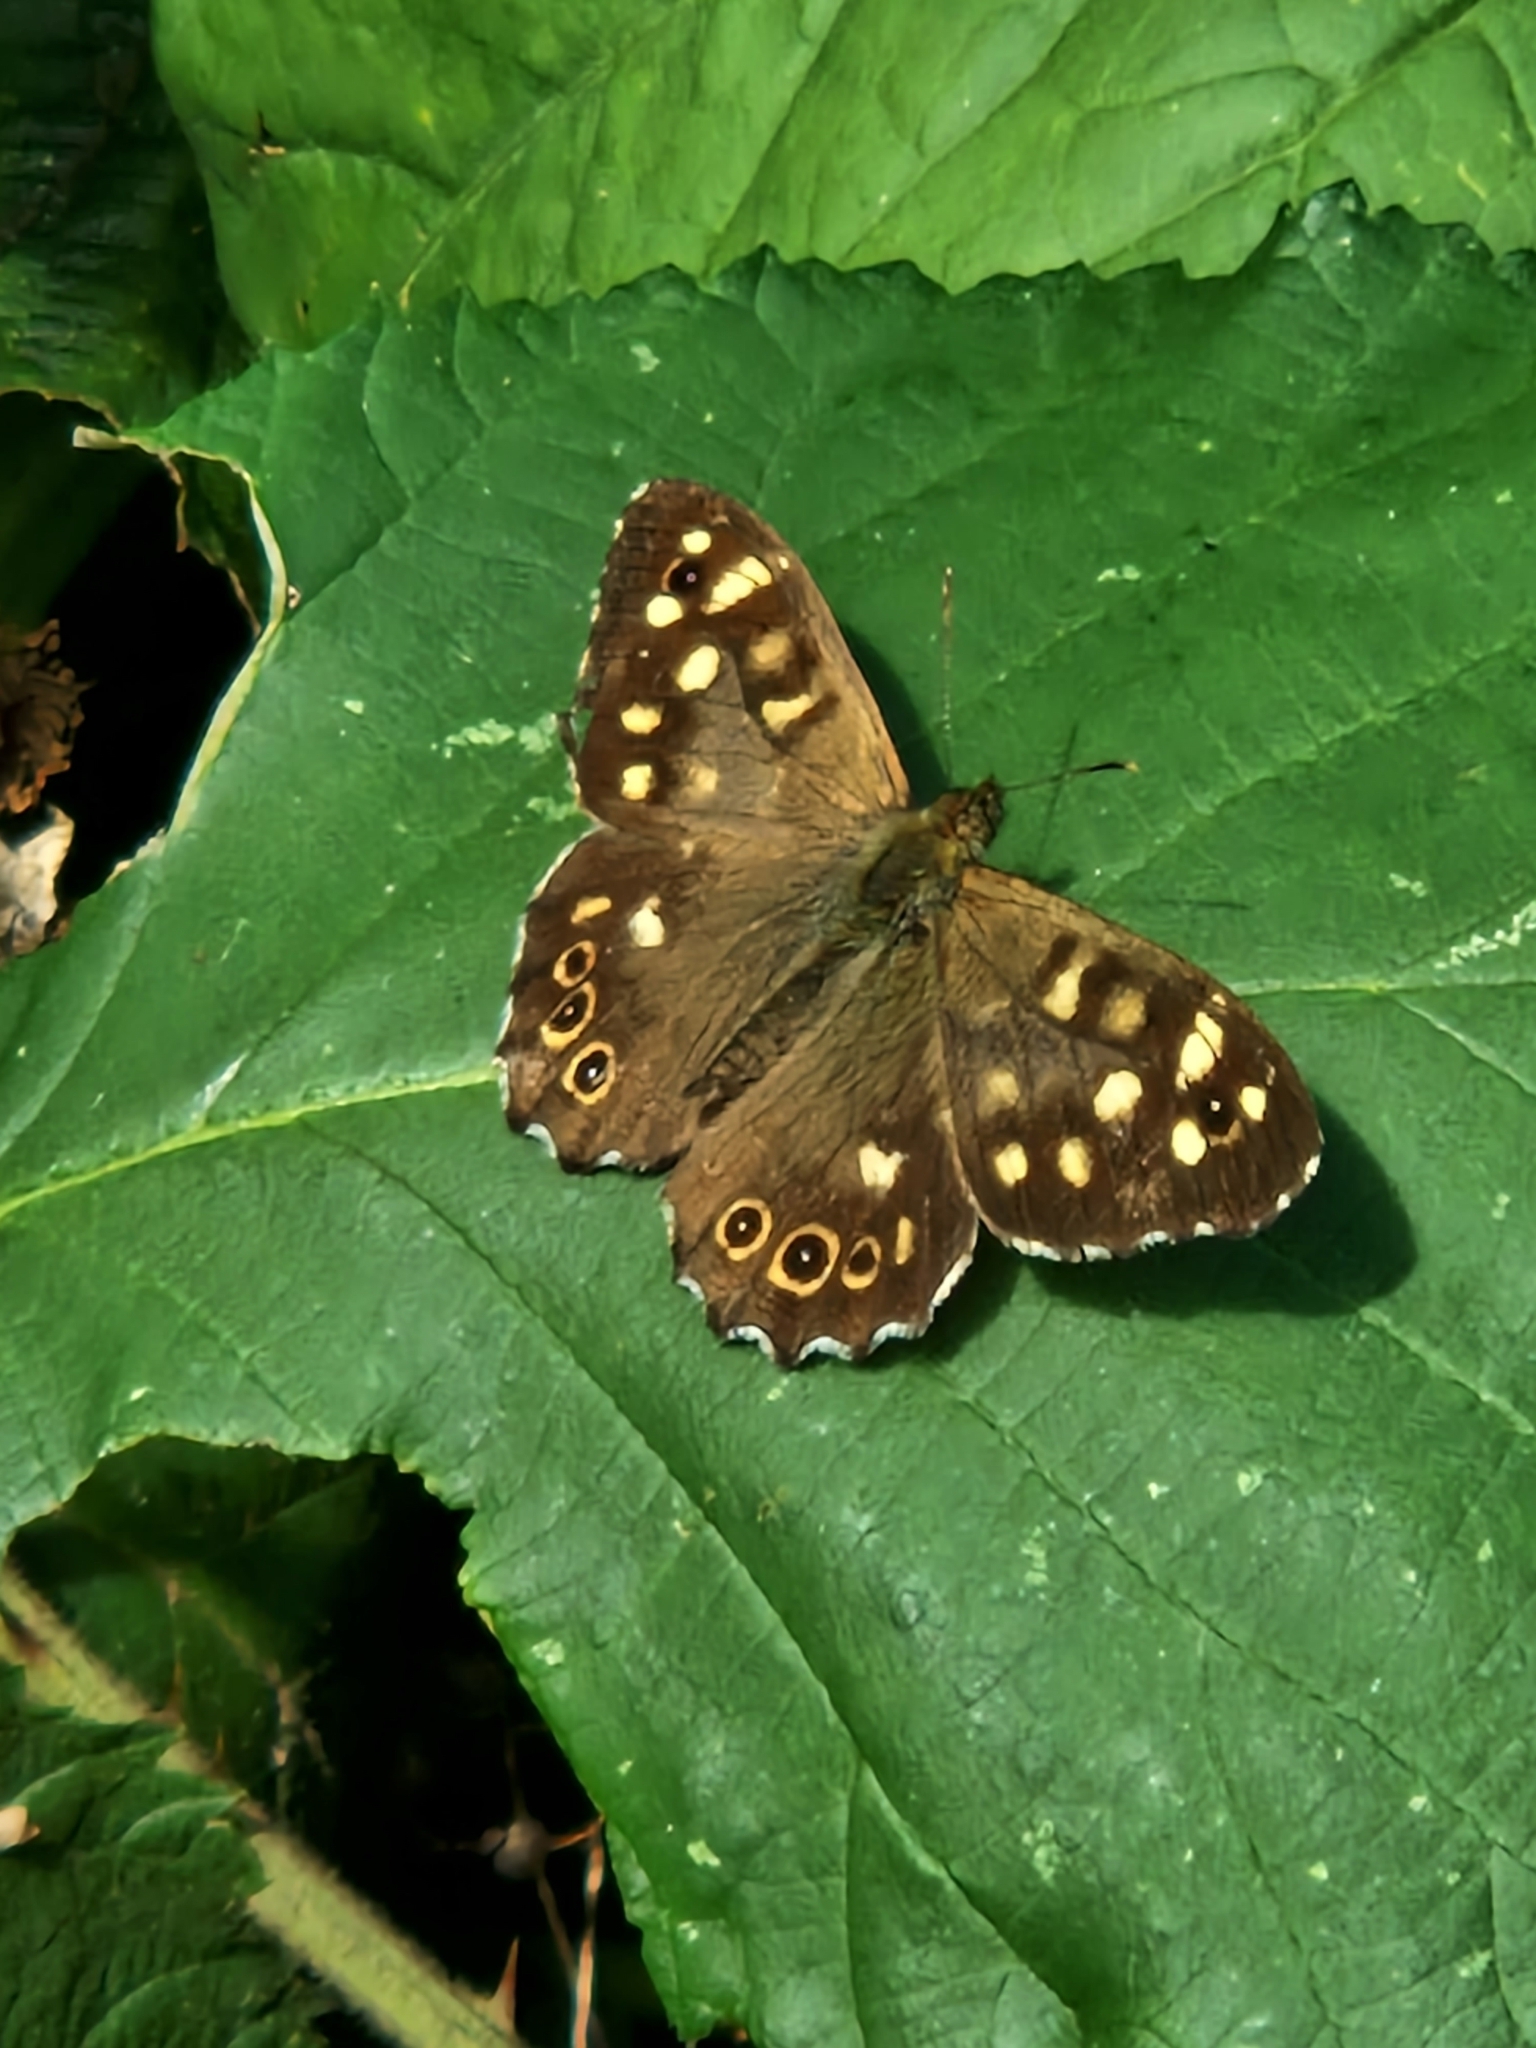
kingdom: Animalia
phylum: Arthropoda
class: Insecta
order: Lepidoptera
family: Nymphalidae
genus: Pararge
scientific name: Pararge aegeria
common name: Speckled wood
